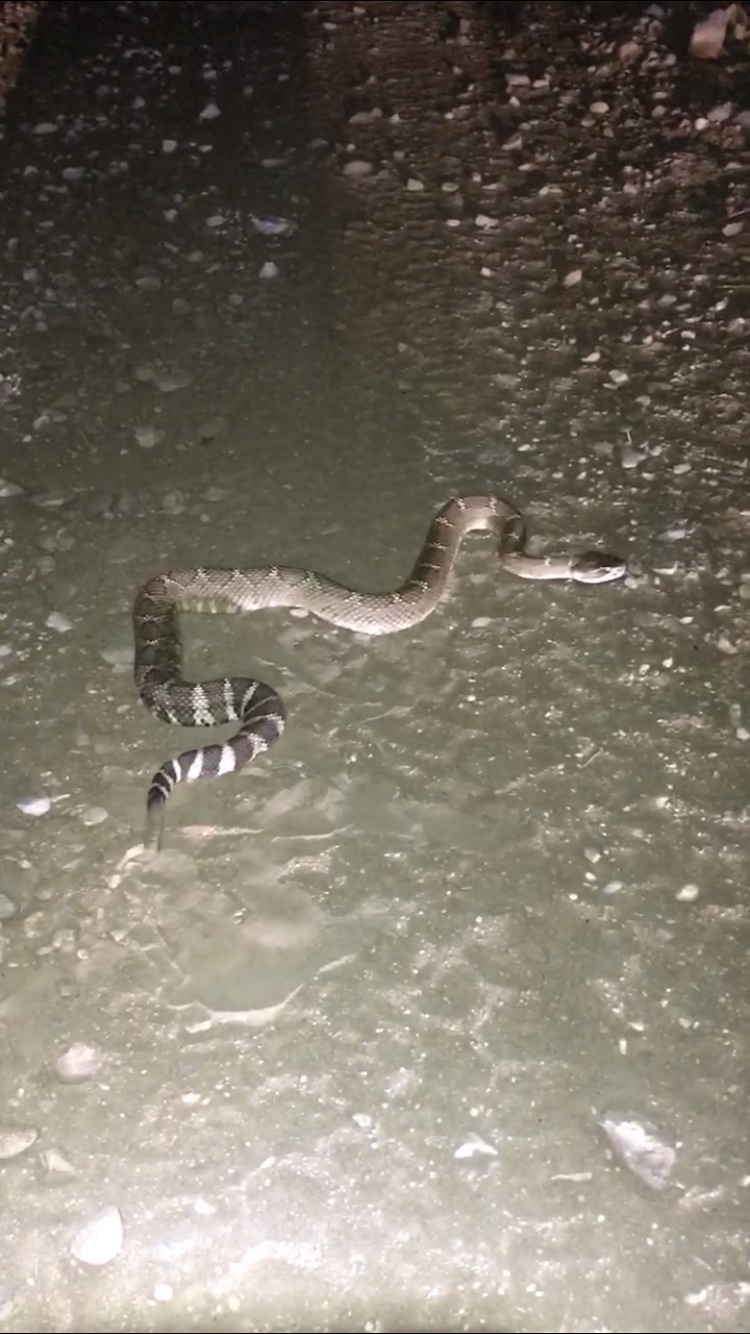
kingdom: Animalia
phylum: Chordata
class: Squamata
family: Viperidae
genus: Crotalus
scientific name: Crotalus oreganus
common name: Abyssus
